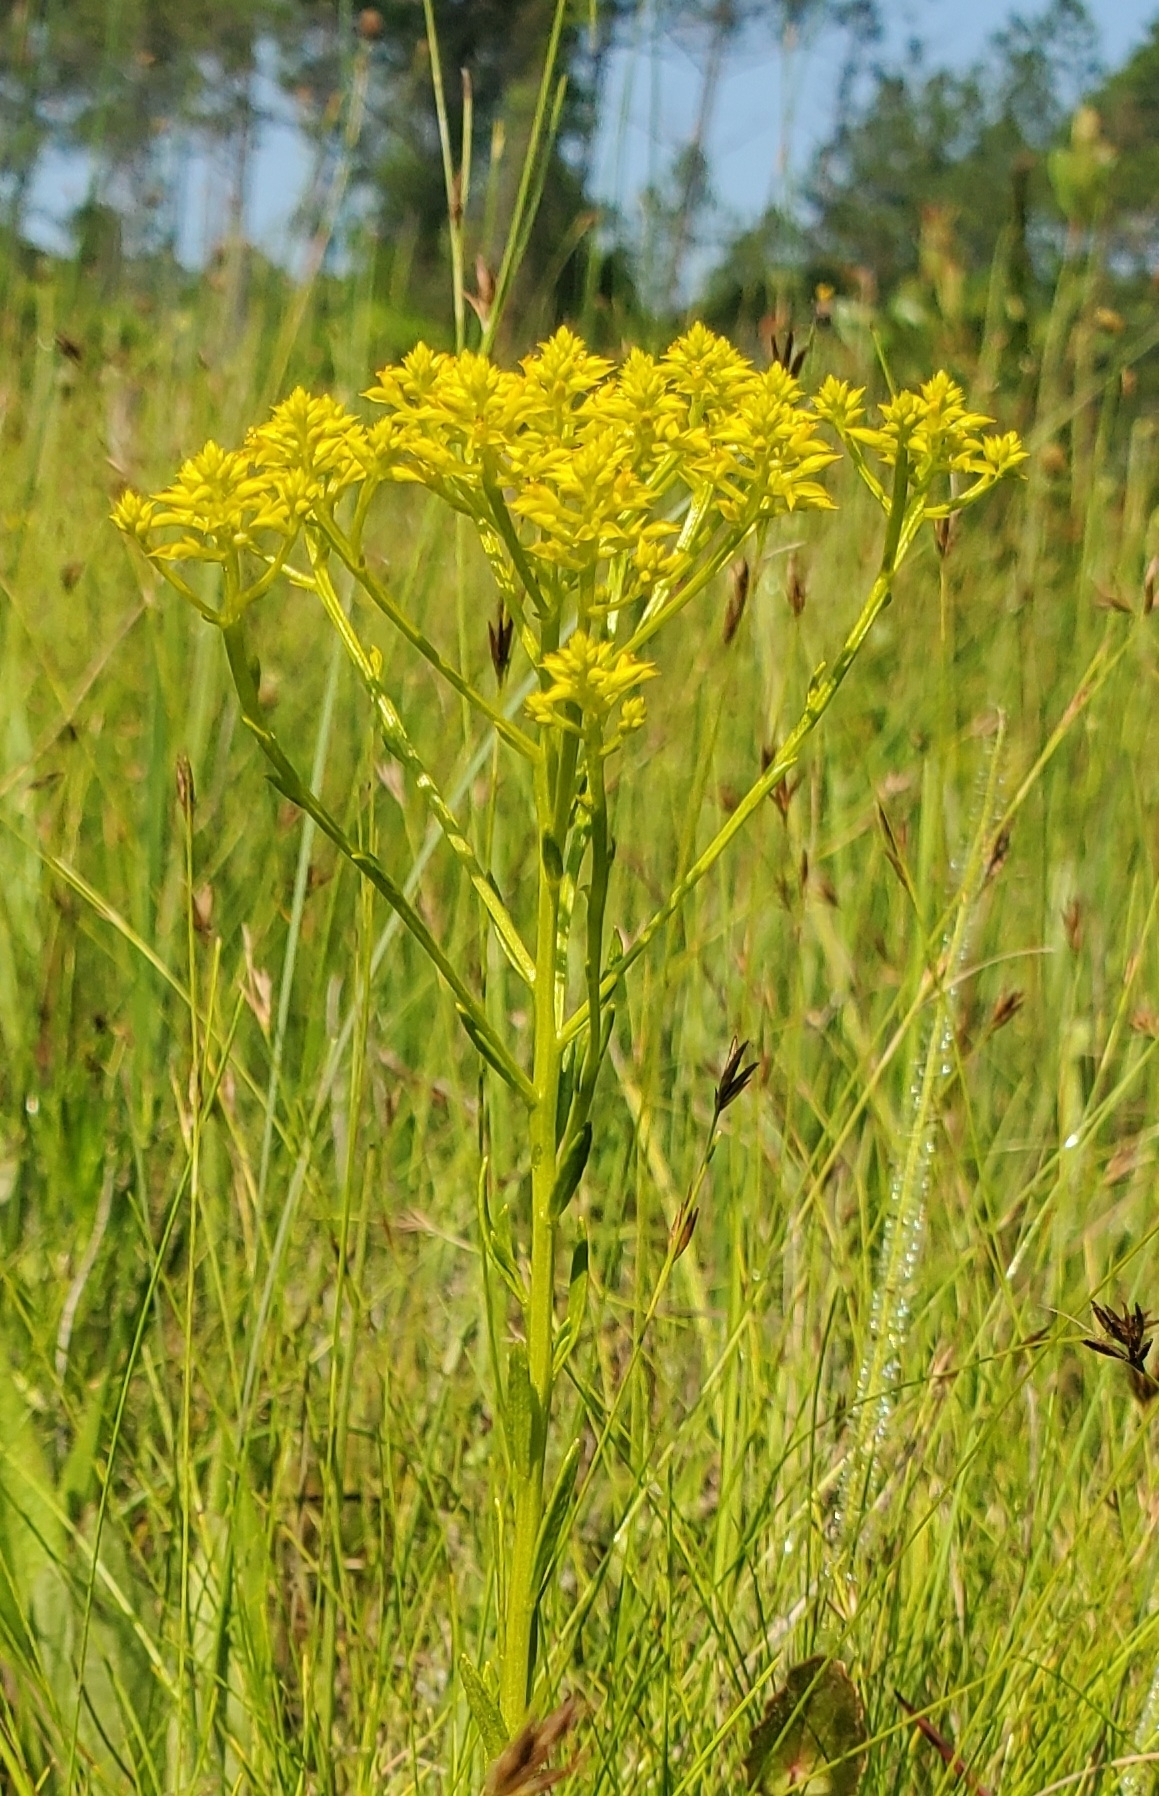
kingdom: Plantae
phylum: Tracheophyta
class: Magnoliopsida
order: Fabales
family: Polygalaceae
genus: Polygala
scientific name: Polygala ramosa
